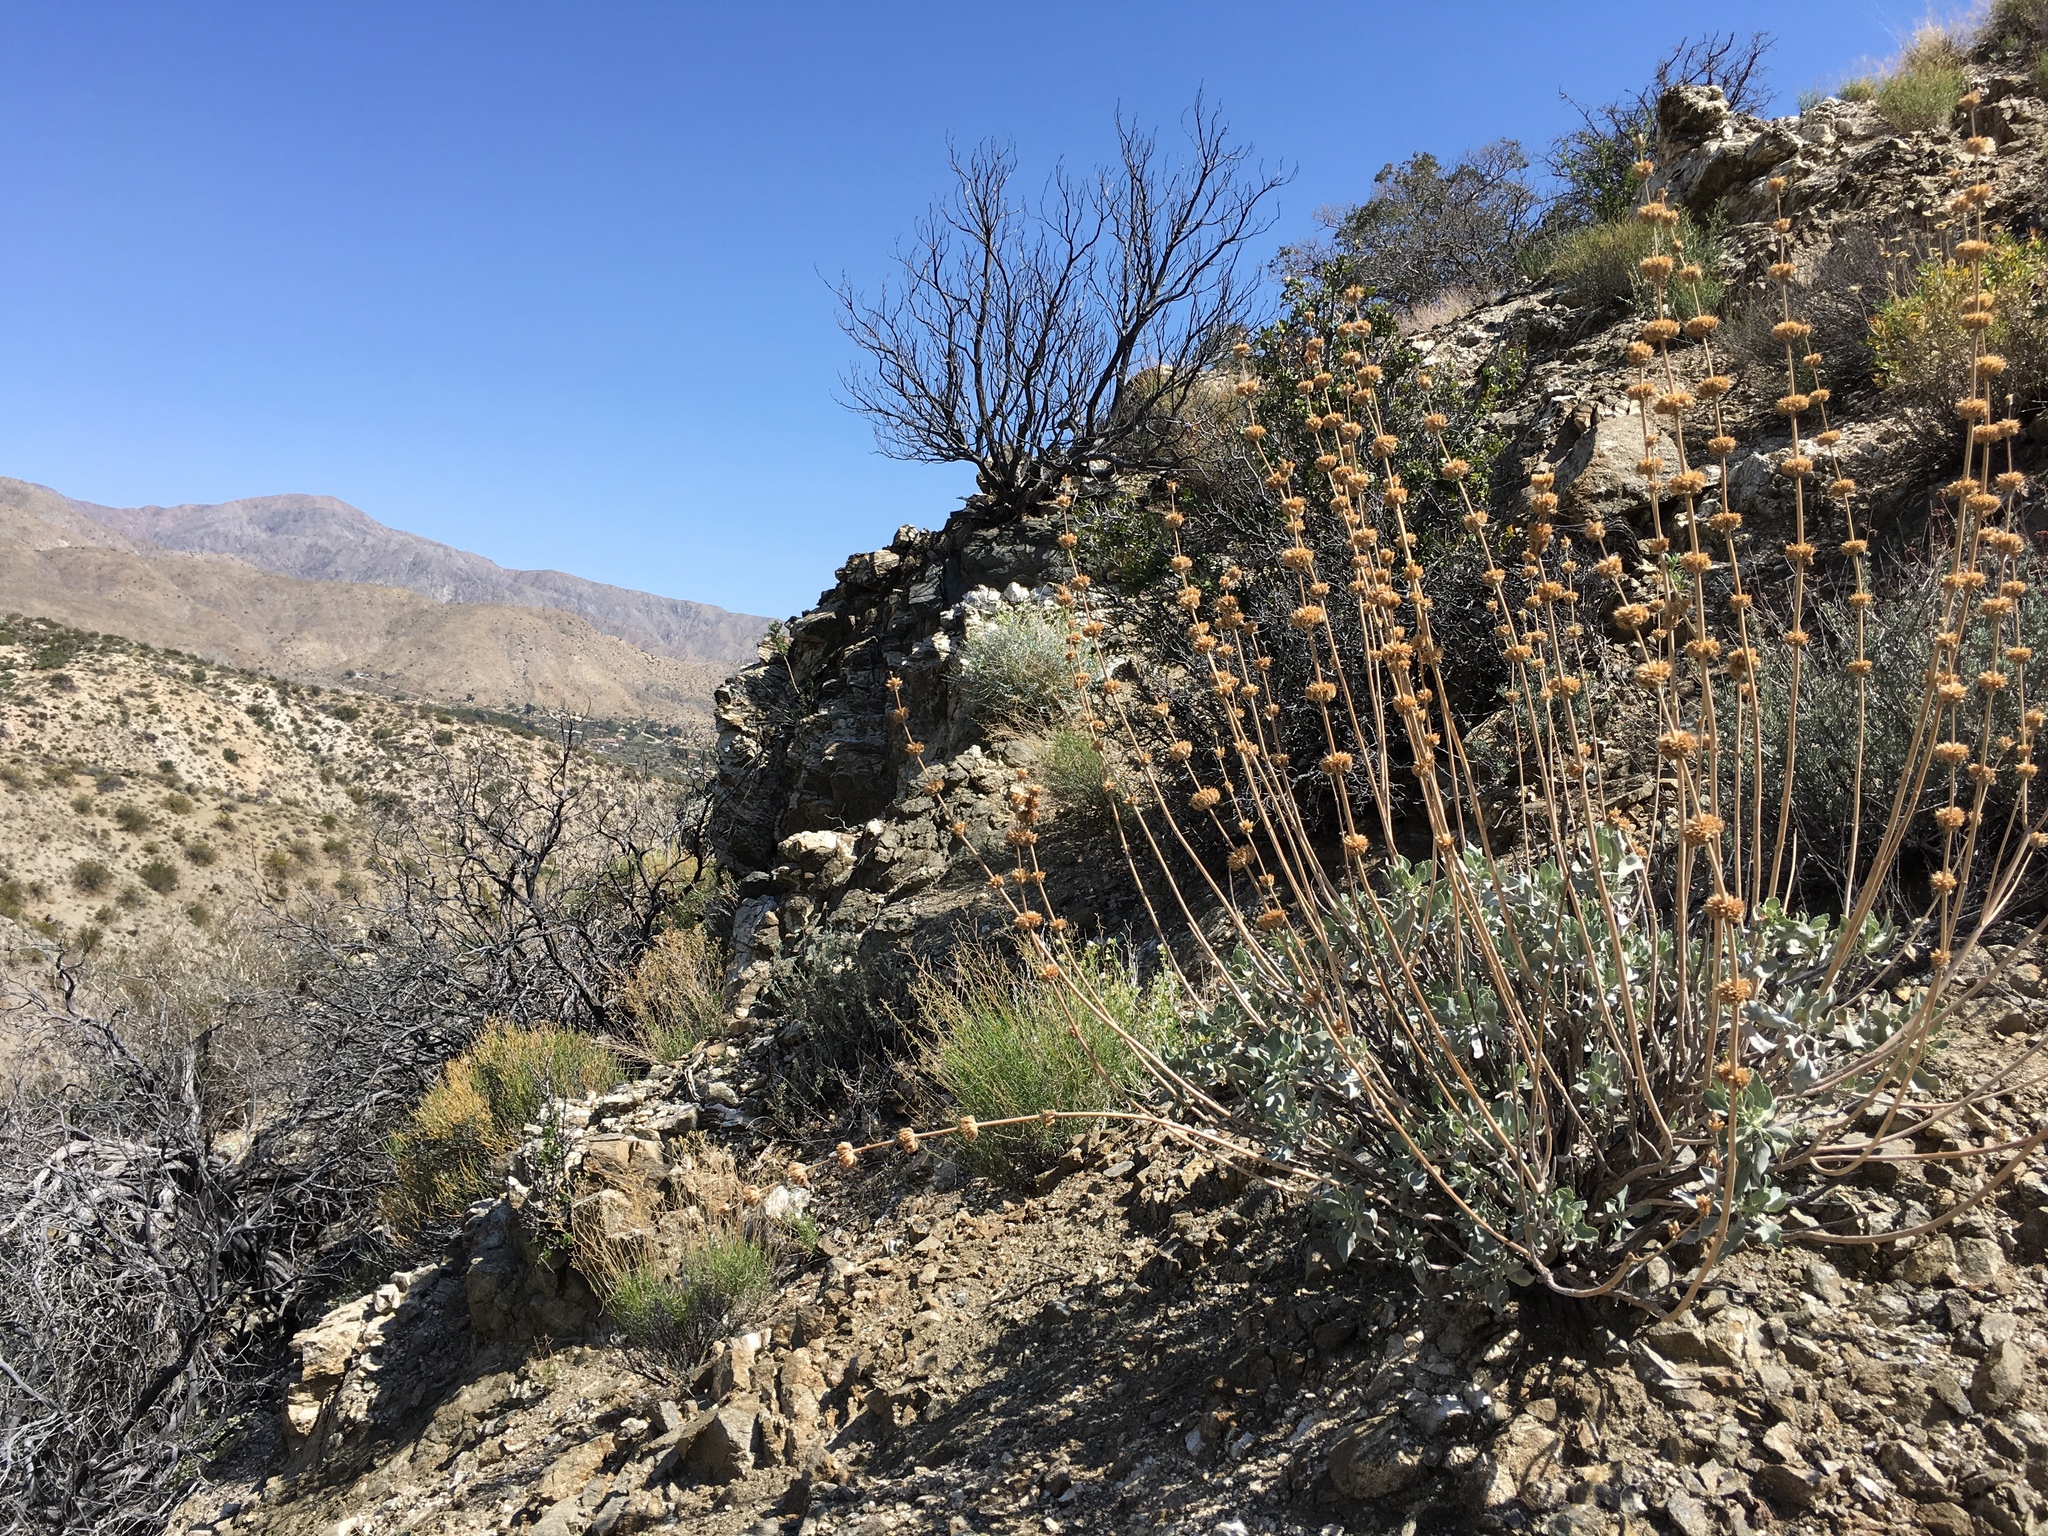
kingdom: Plantae
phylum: Tracheophyta
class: Magnoliopsida
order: Lamiales
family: Lamiaceae
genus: Salvia
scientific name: Salvia vaseyi
